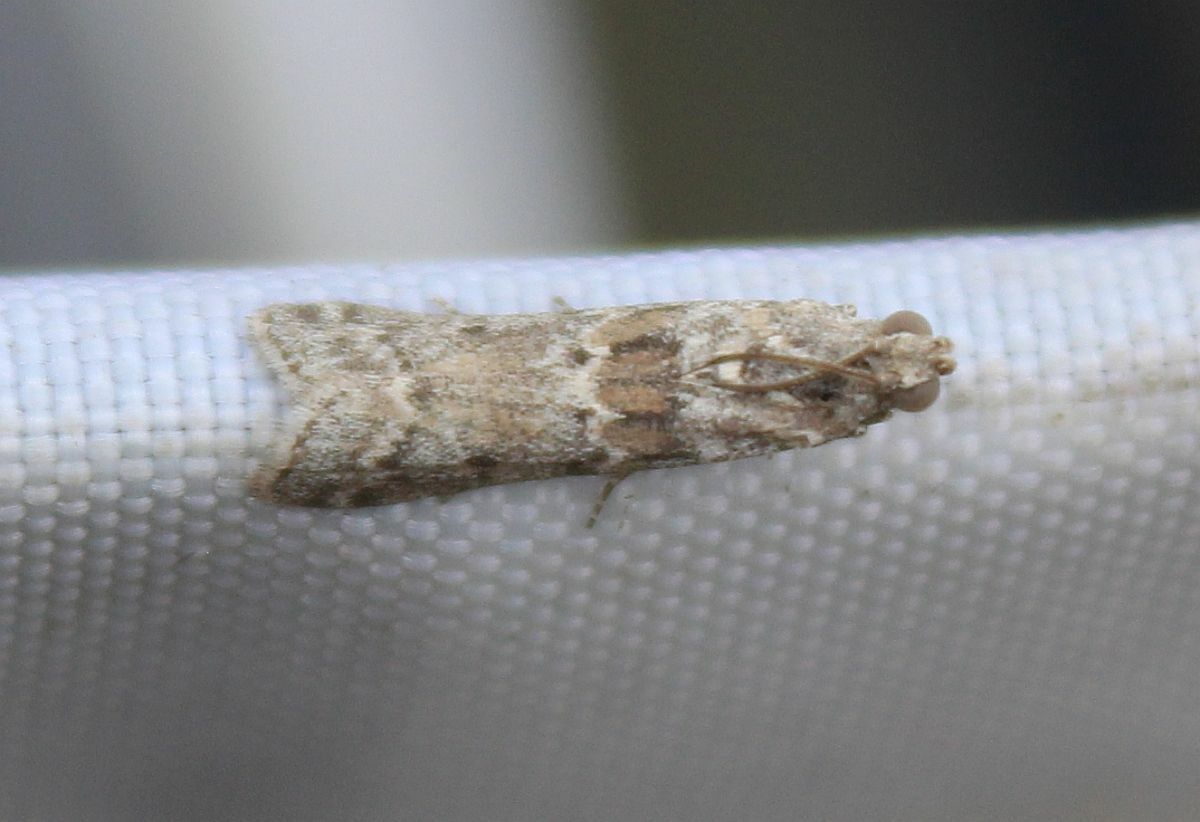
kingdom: Animalia
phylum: Arthropoda
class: Insecta
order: Lepidoptera
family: Pyralidae
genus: Ancylosis
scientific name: Ancylosis oblitella
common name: Saltmarsh knot-horn
